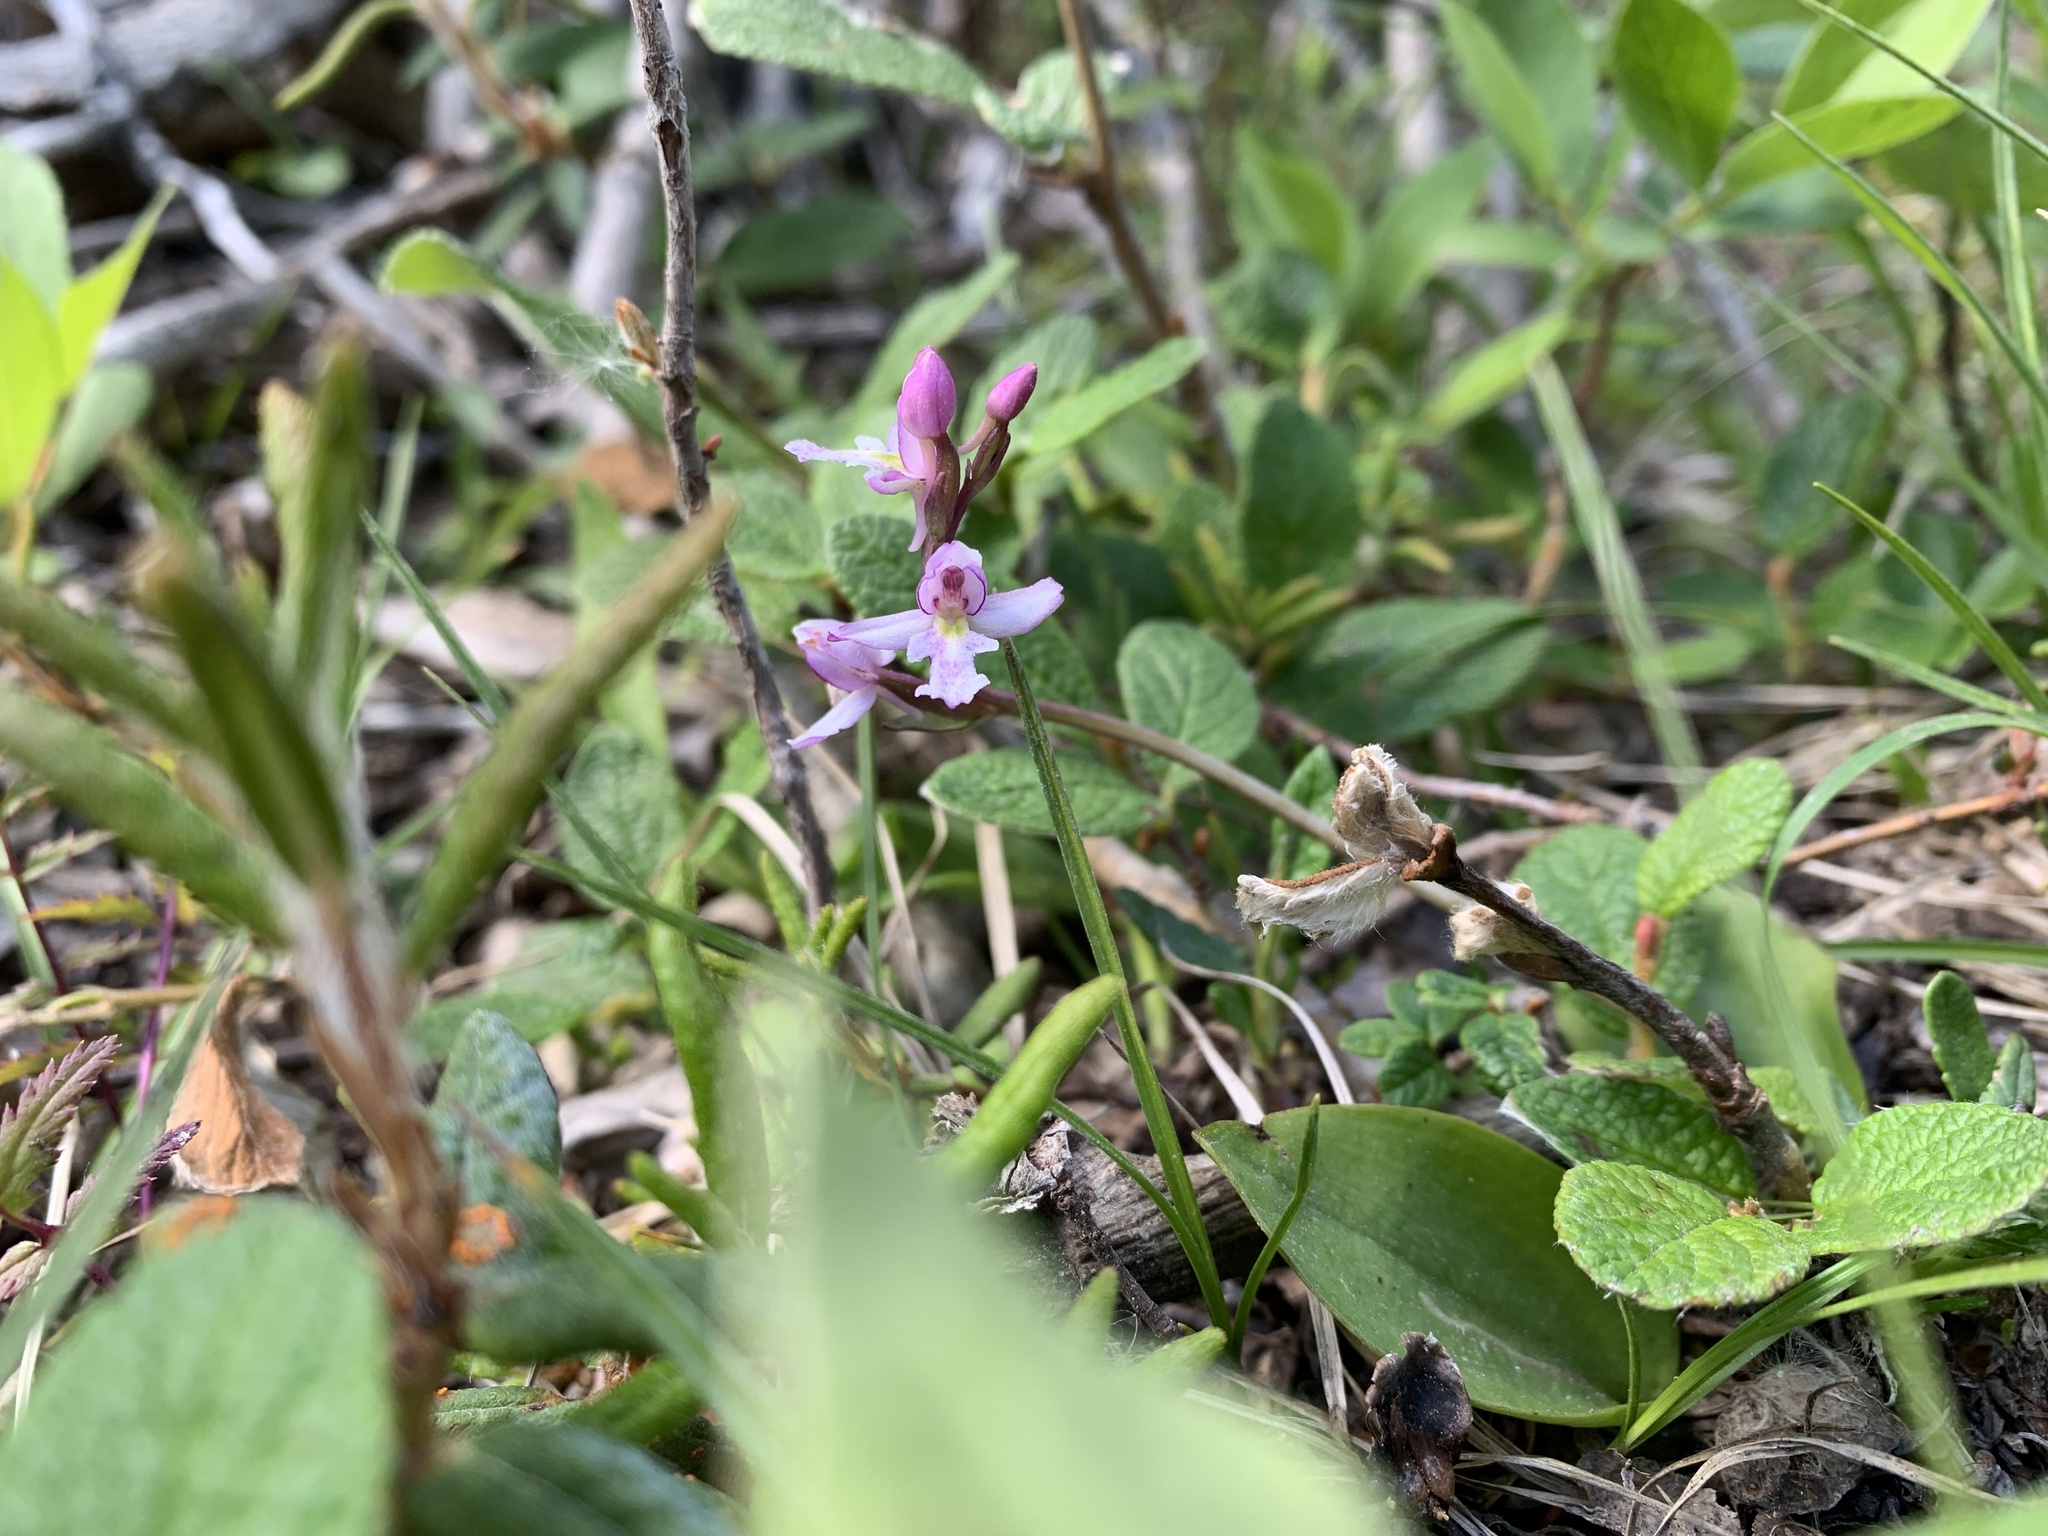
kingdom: Plantae
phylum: Tracheophyta
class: Liliopsida
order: Asparagales
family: Orchidaceae
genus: Galearis
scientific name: Galearis rotundifolia
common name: One-leaved orchis
